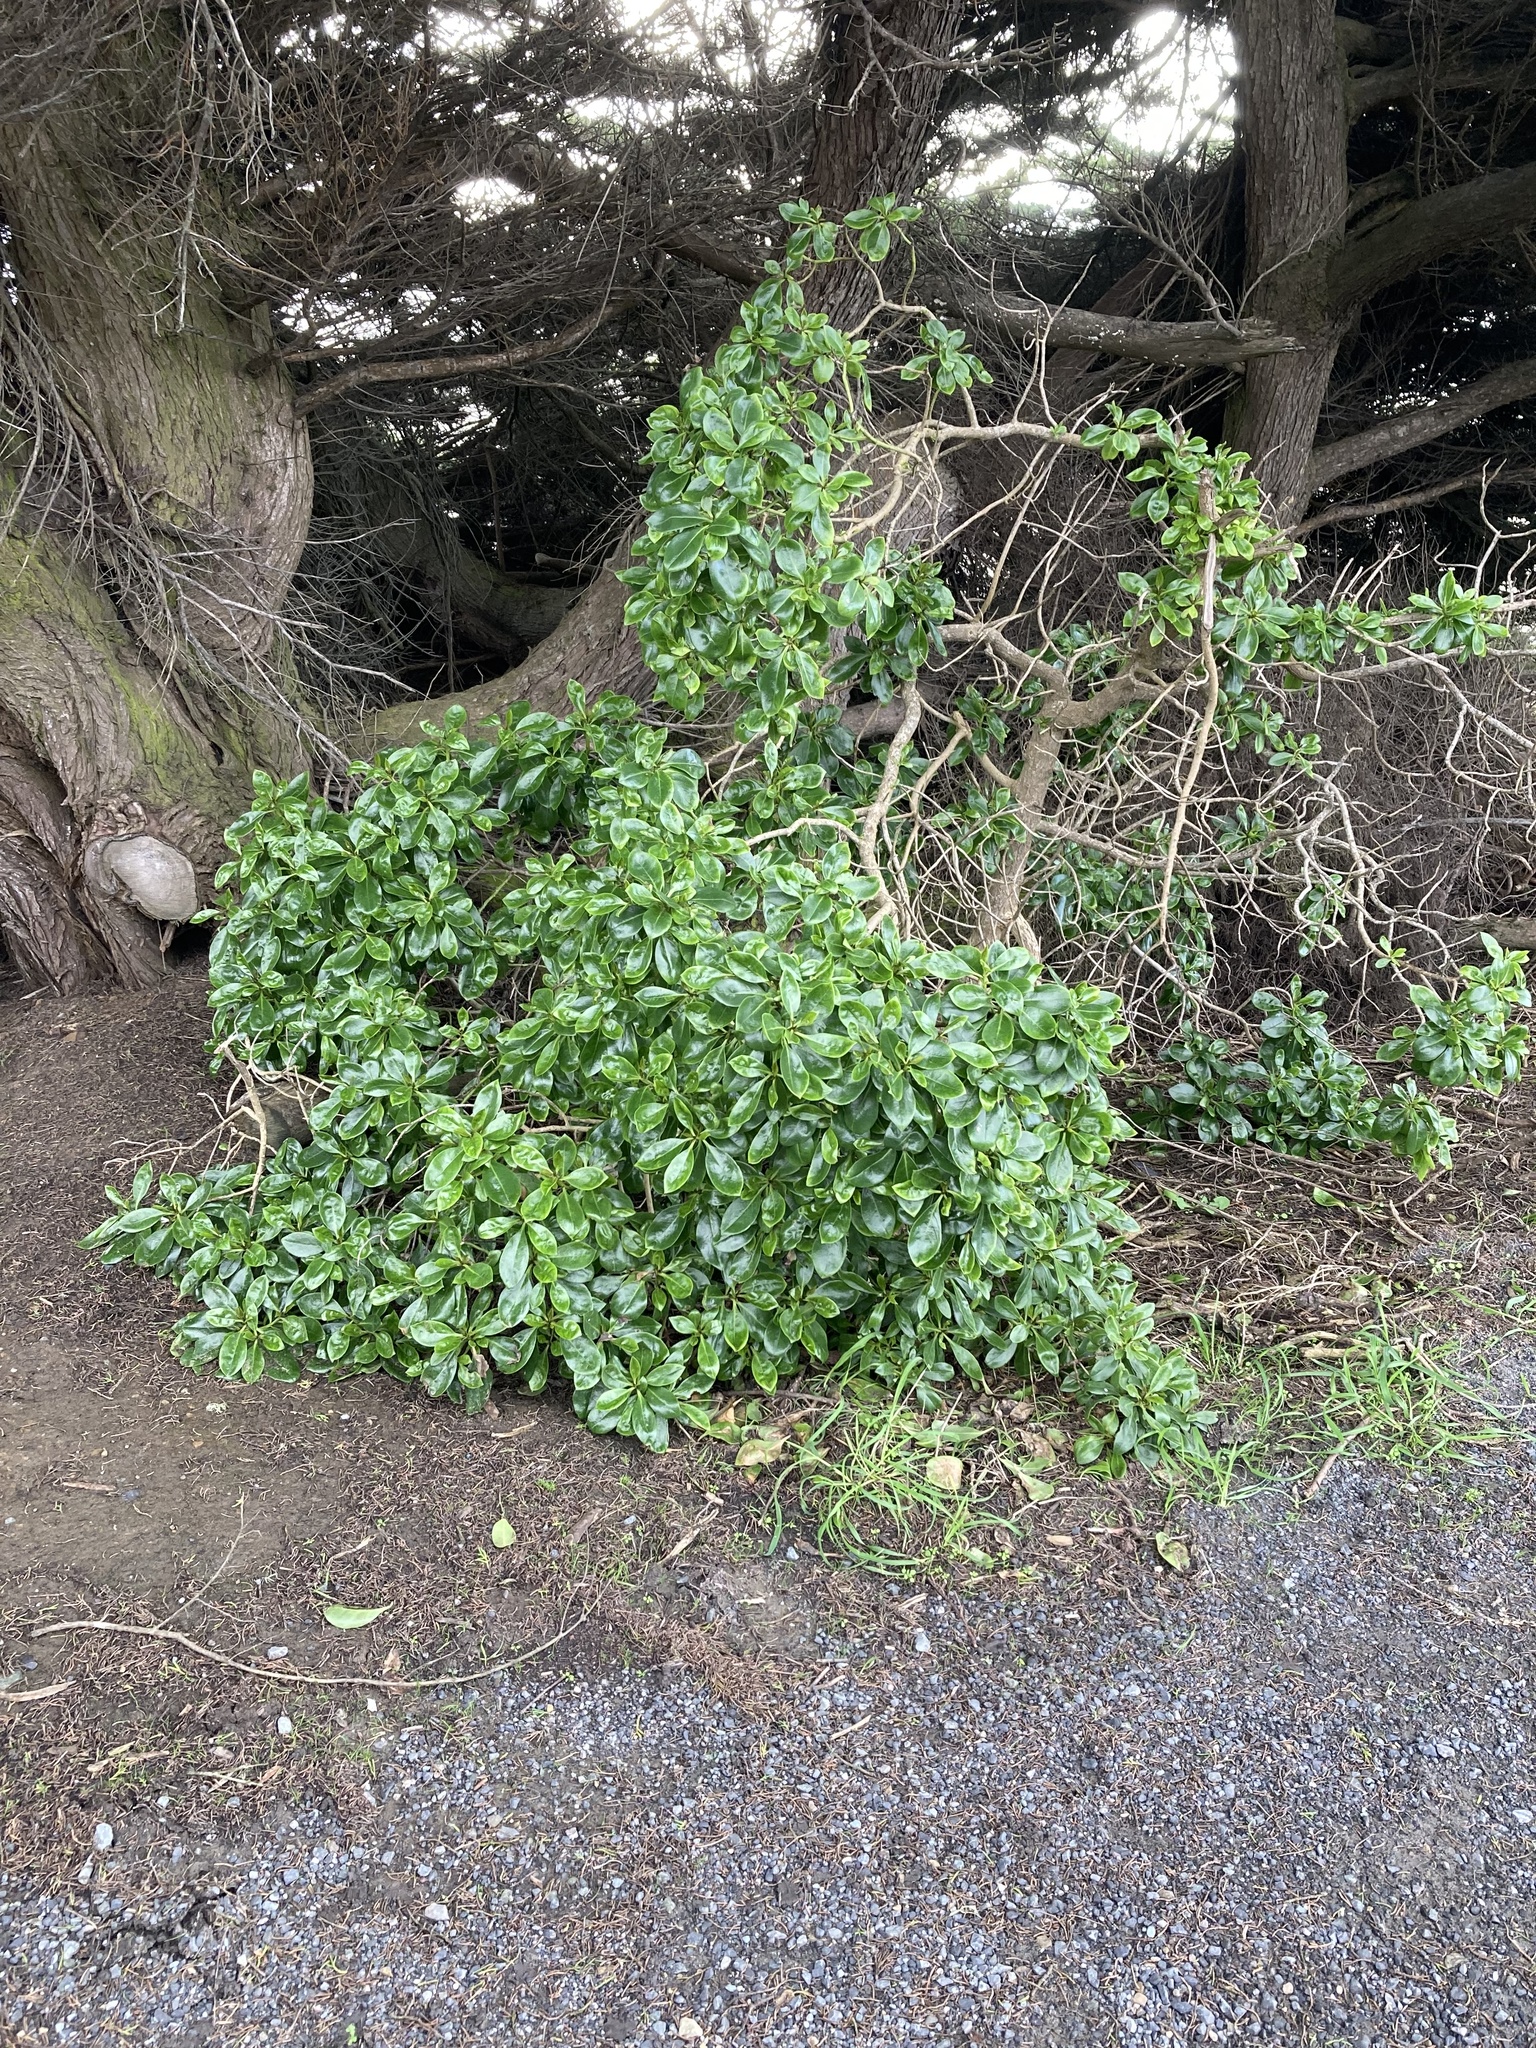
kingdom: Plantae
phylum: Tracheophyta
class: Magnoliopsida
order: Lamiales
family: Scrophulariaceae
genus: Myoporum
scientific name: Myoporum laetum
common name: Ngaio tree
